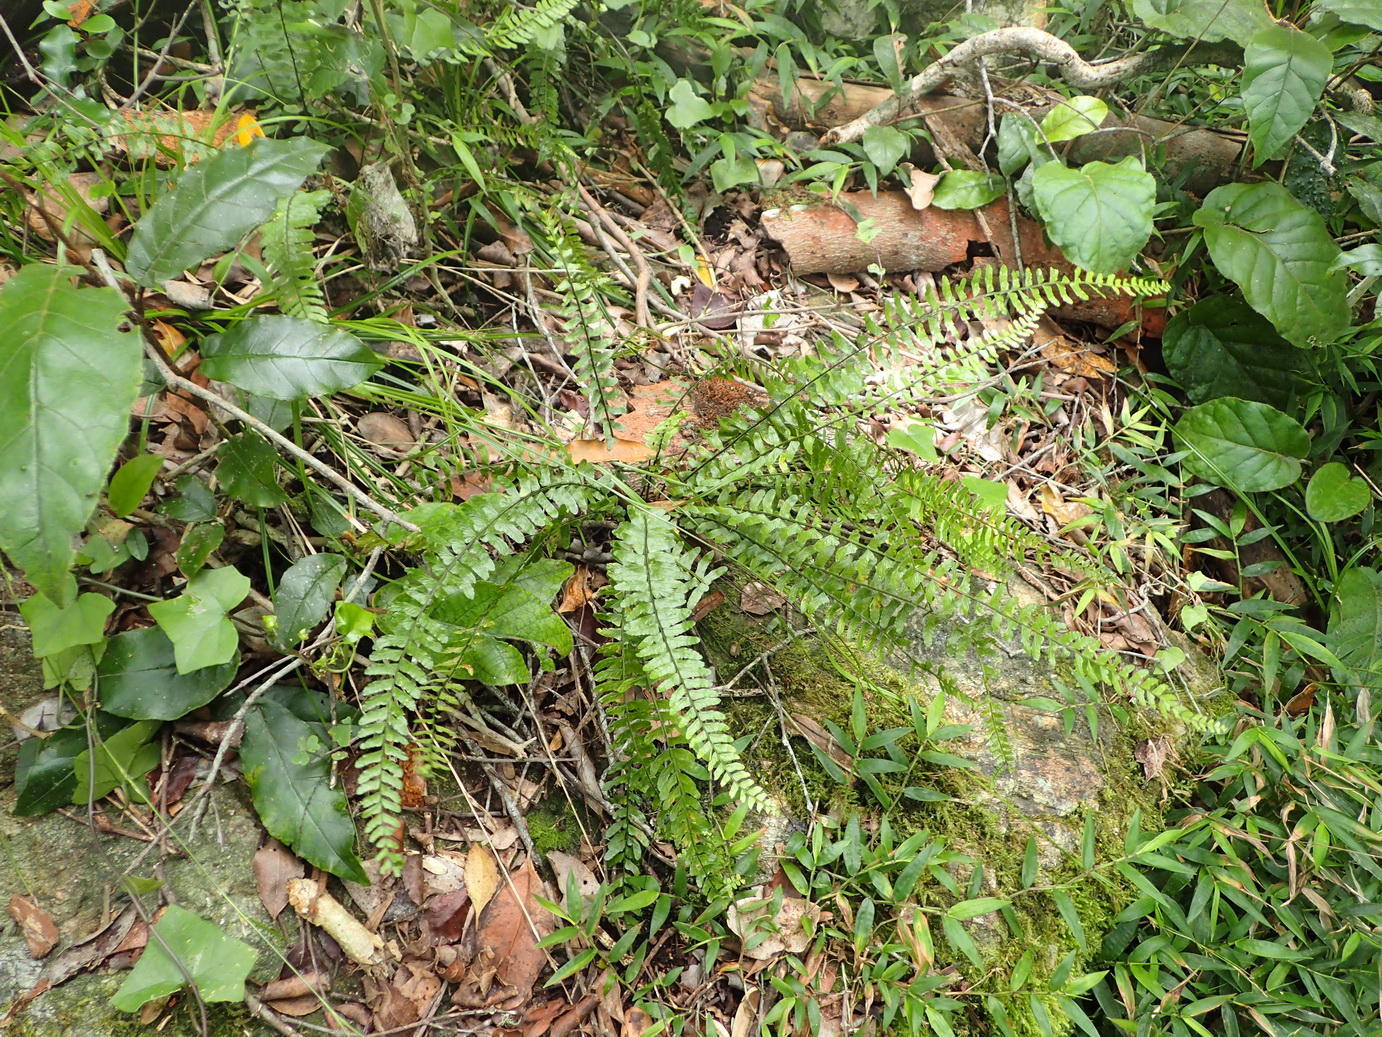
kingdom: Plantae
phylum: Tracheophyta
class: Polypodiopsida
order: Polypodiales
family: Aspleniaceae
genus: Asplenium
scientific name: Asplenium lunulatum
